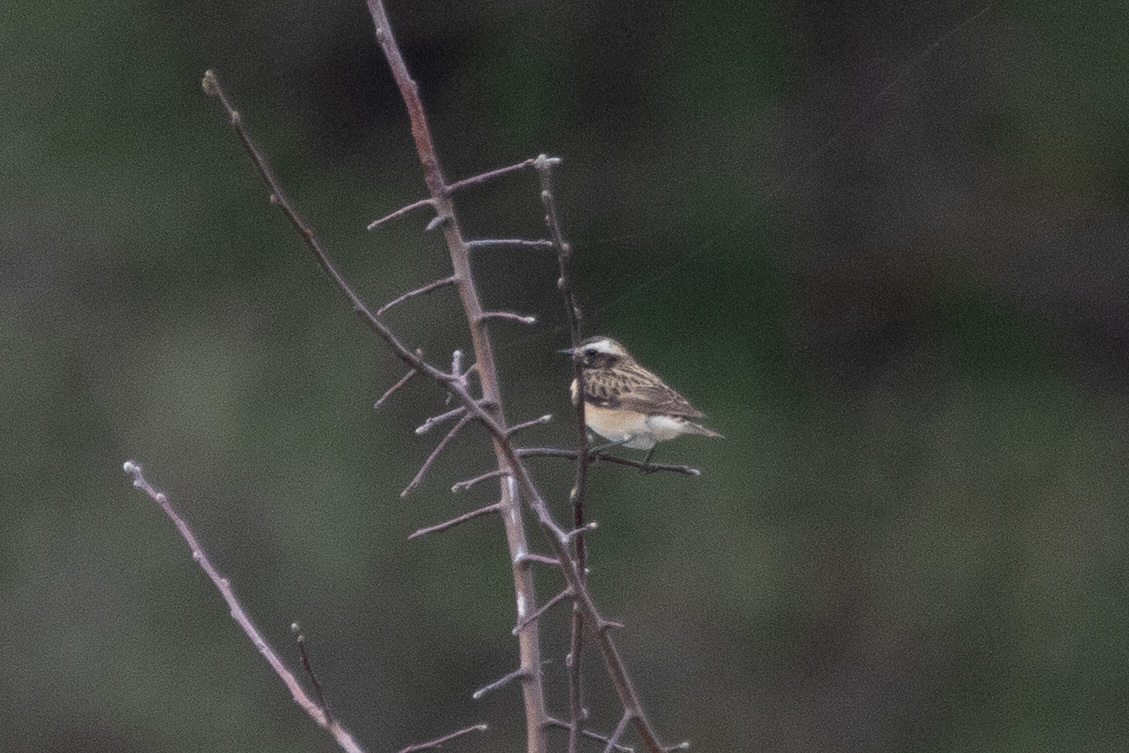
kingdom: Animalia
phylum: Chordata
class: Aves
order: Passeriformes
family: Muscicapidae
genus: Saxicola
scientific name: Saxicola rubetra
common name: Whinchat
